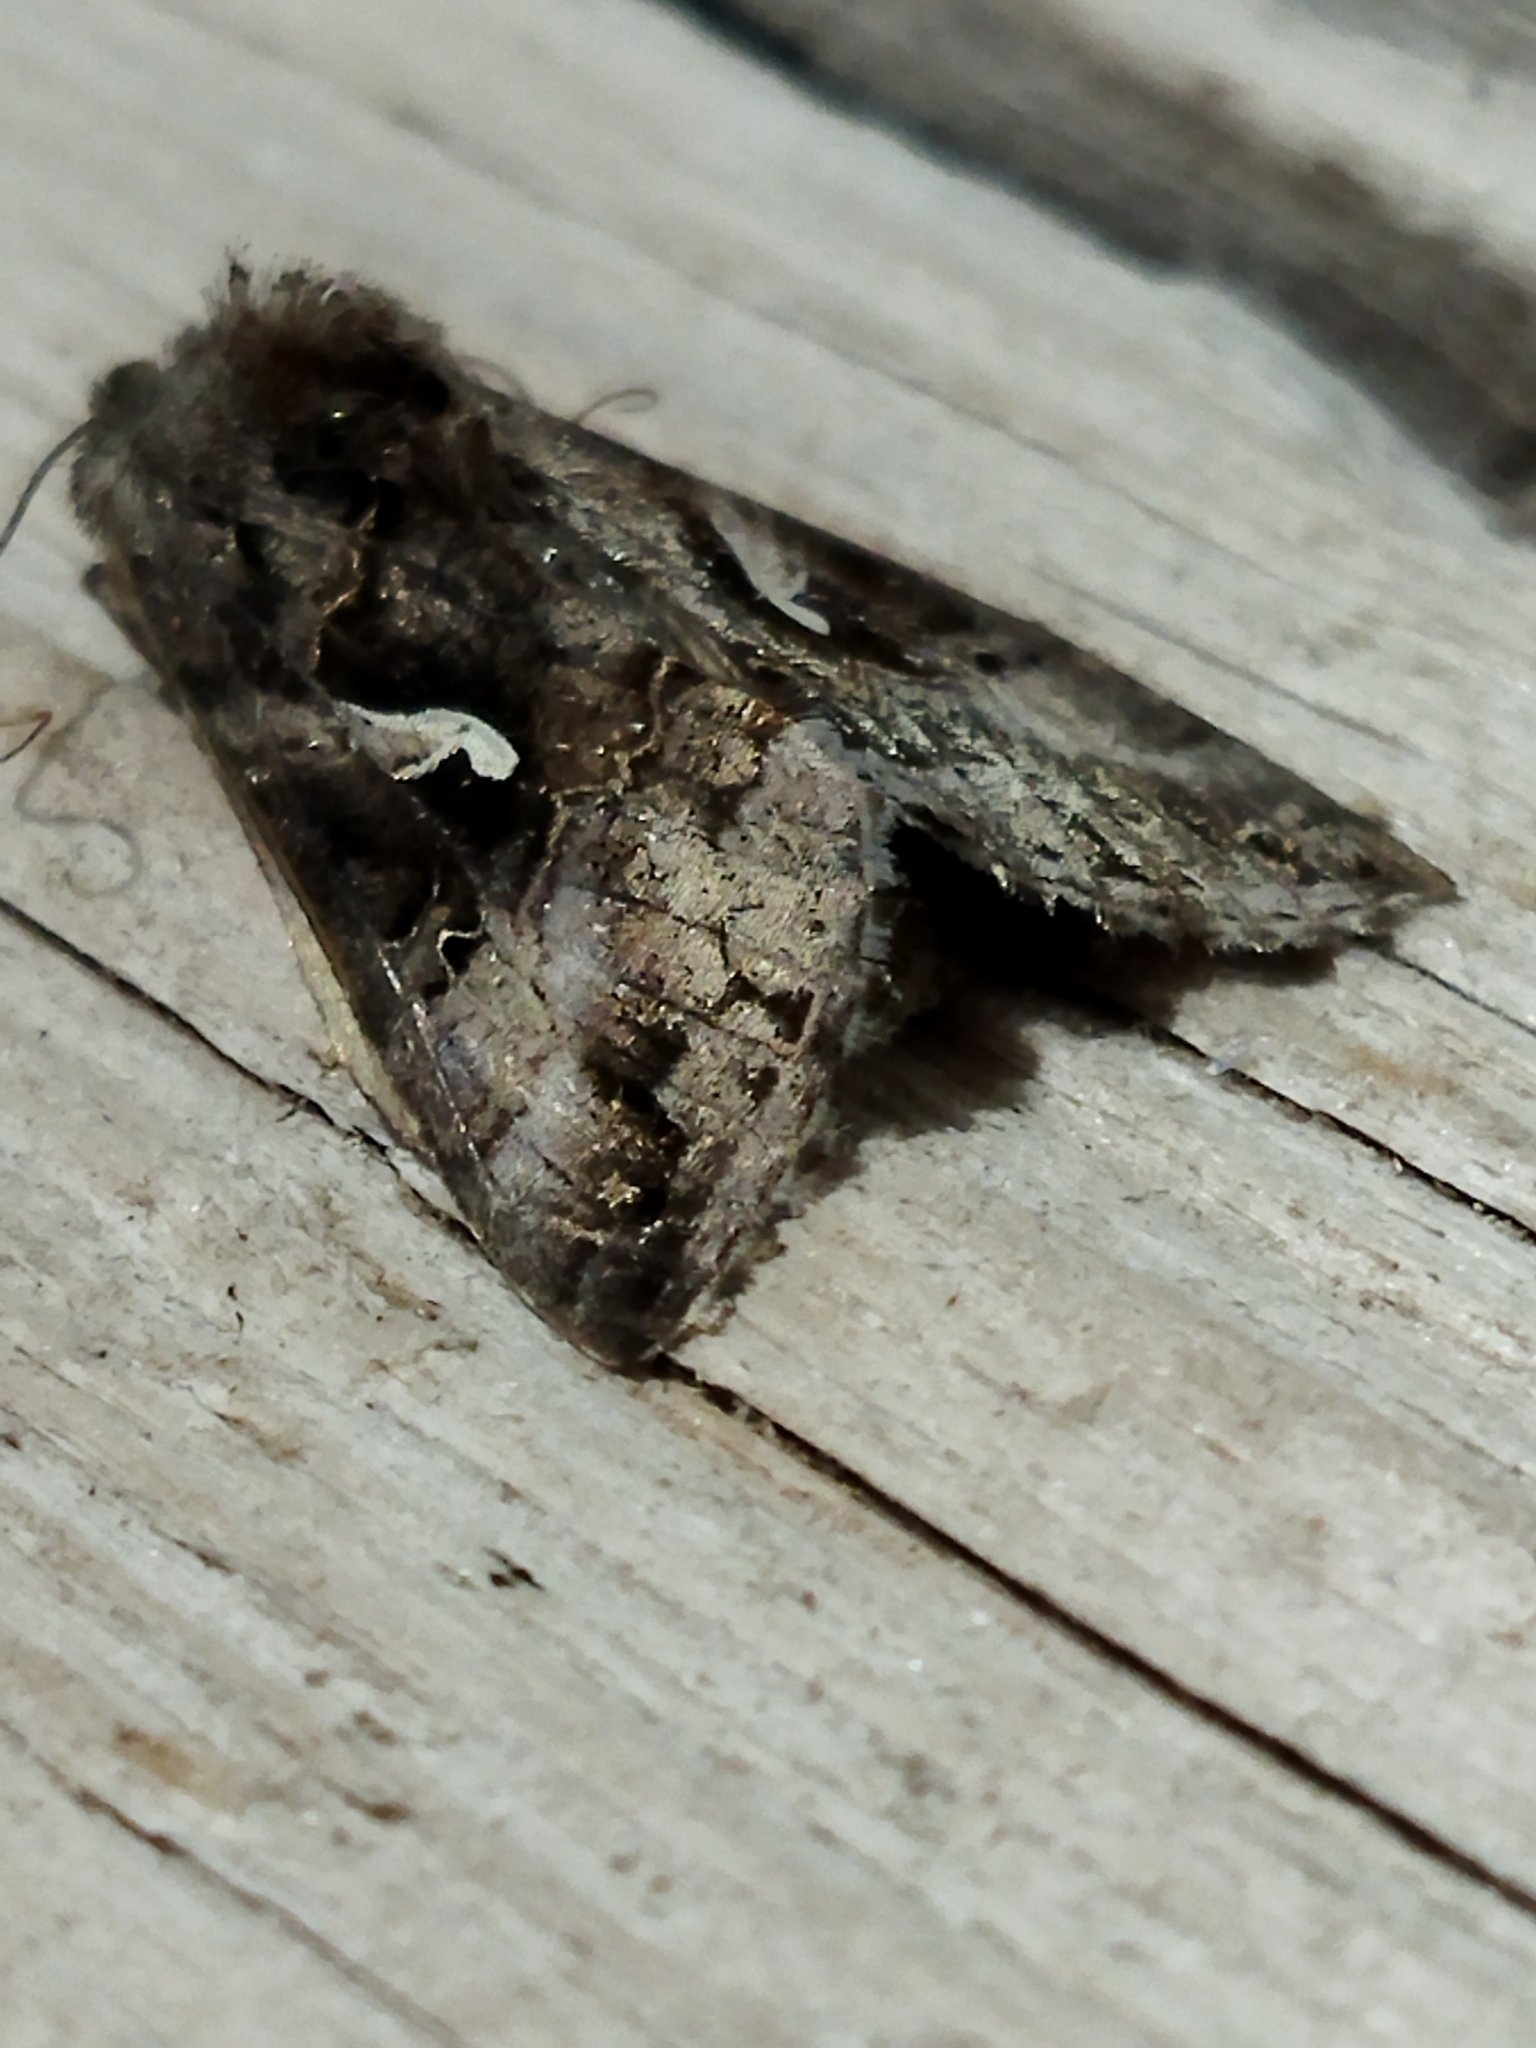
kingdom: Animalia
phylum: Arthropoda
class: Insecta
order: Lepidoptera
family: Noctuidae
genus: Autographa
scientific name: Autographa gamma
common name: Silver y
